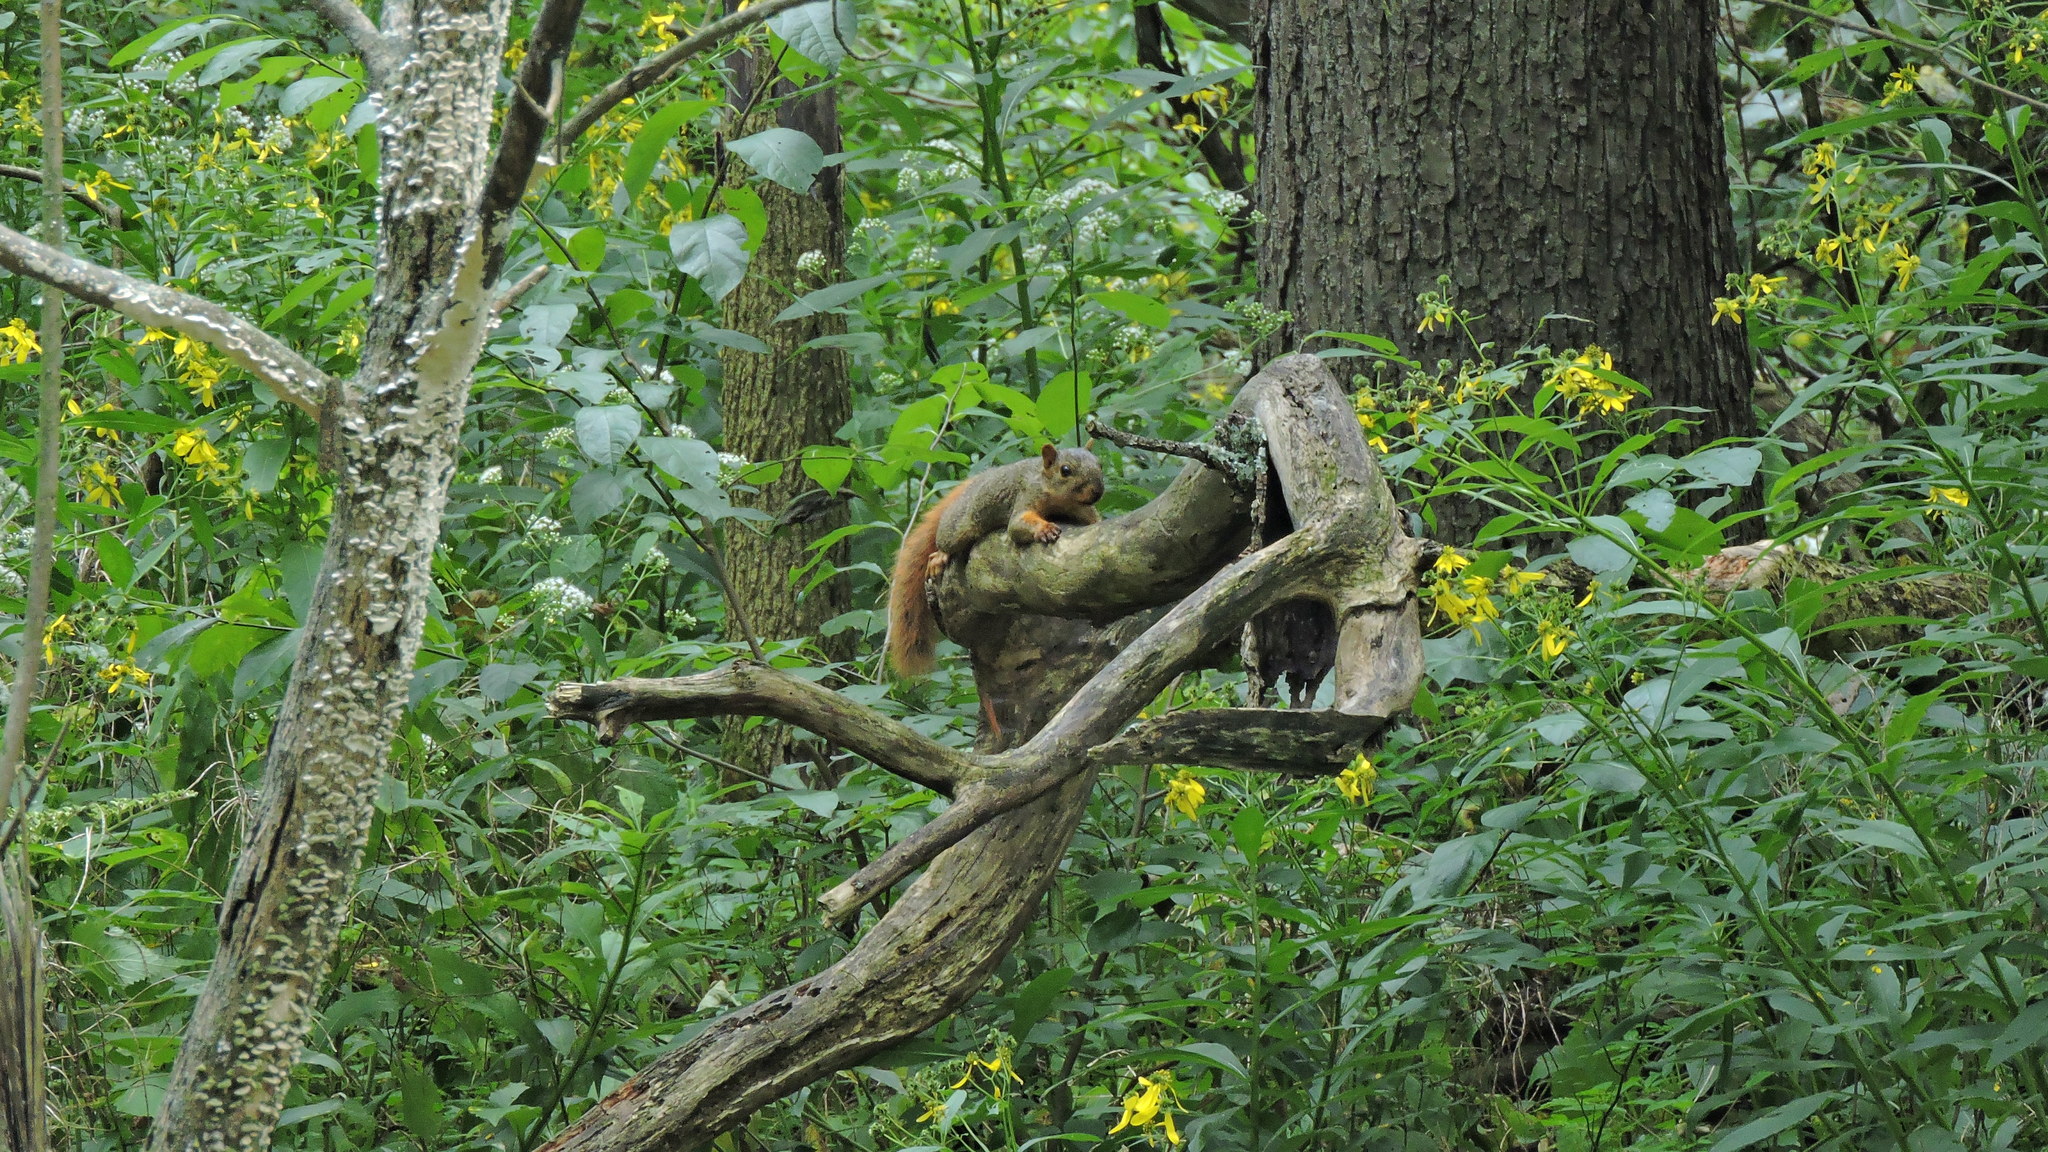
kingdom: Animalia
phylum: Chordata
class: Mammalia
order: Rodentia
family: Sciuridae
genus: Sciurus
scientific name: Sciurus niger
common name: Fox squirrel
